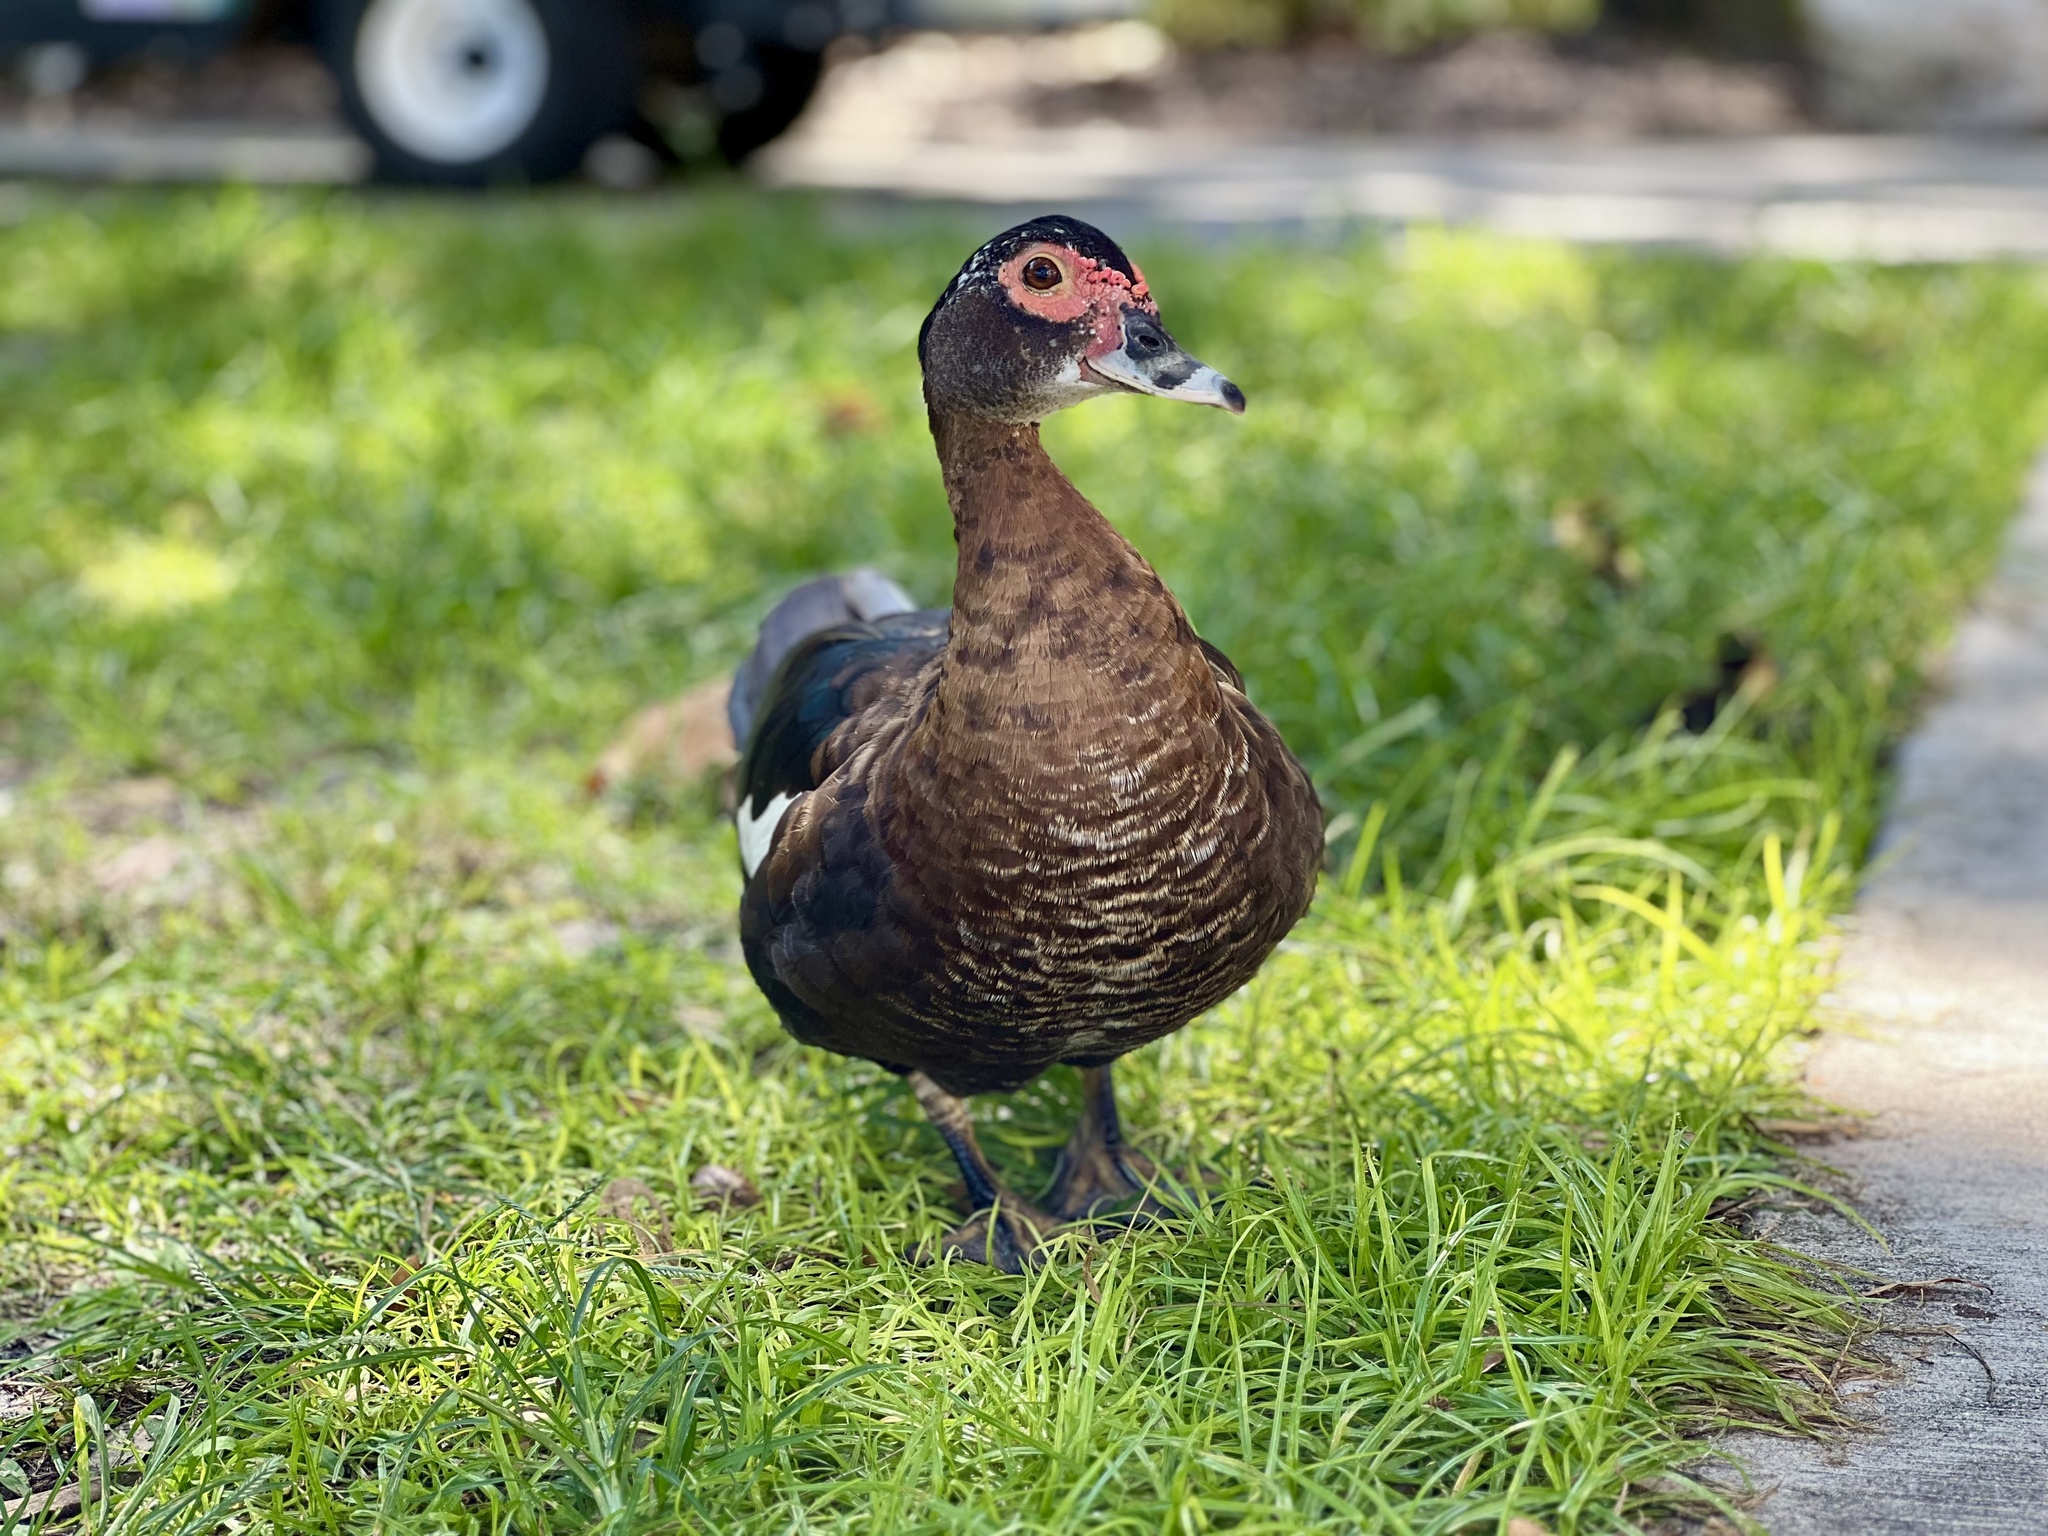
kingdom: Animalia
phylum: Chordata
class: Aves
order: Anseriformes
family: Anatidae
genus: Cairina
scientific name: Cairina moschata
